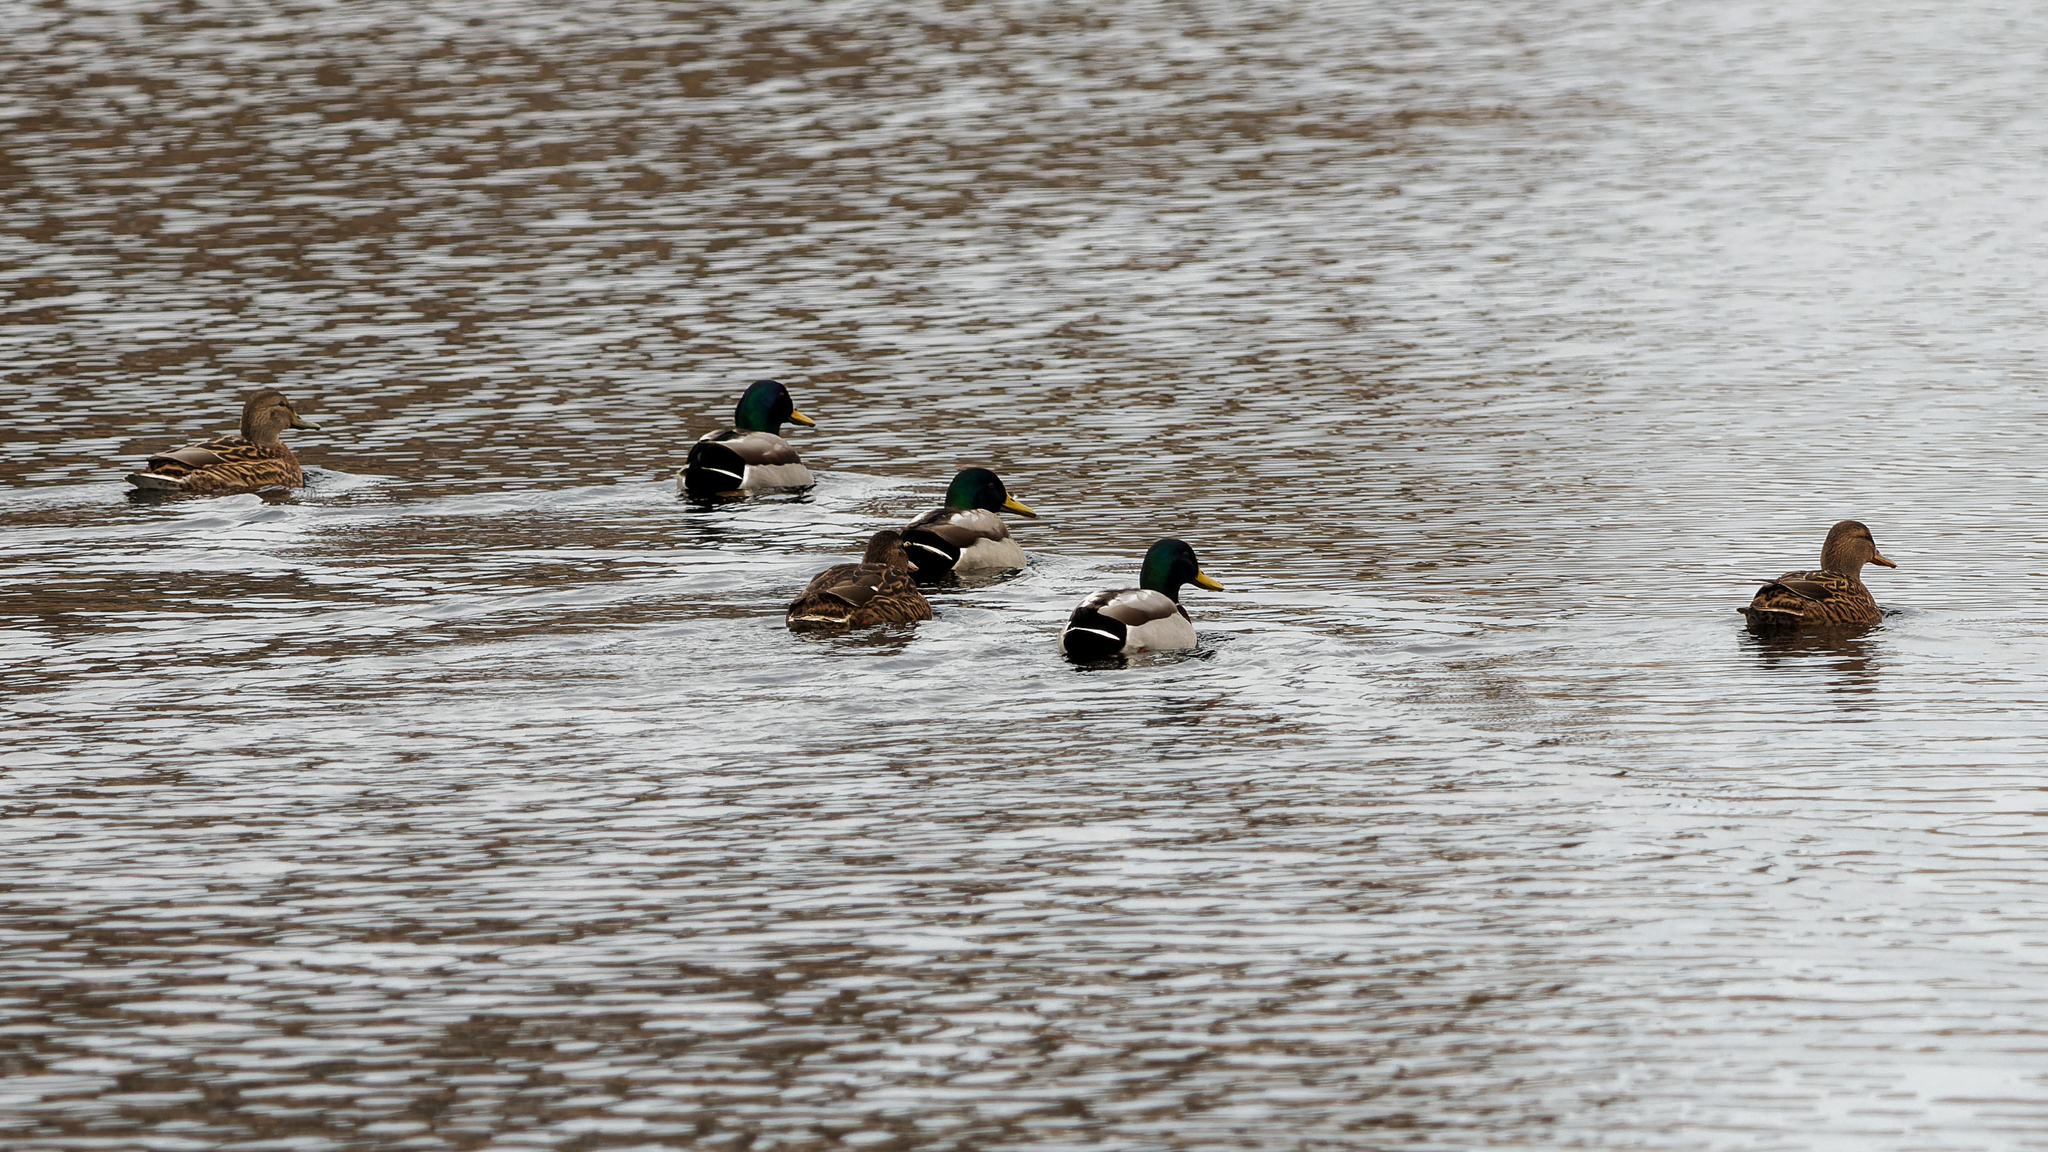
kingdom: Animalia
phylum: Chordata
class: Aves
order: Anseriformes
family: Anatidae
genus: Anas
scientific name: Anas platyrhynchos
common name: Mallard
